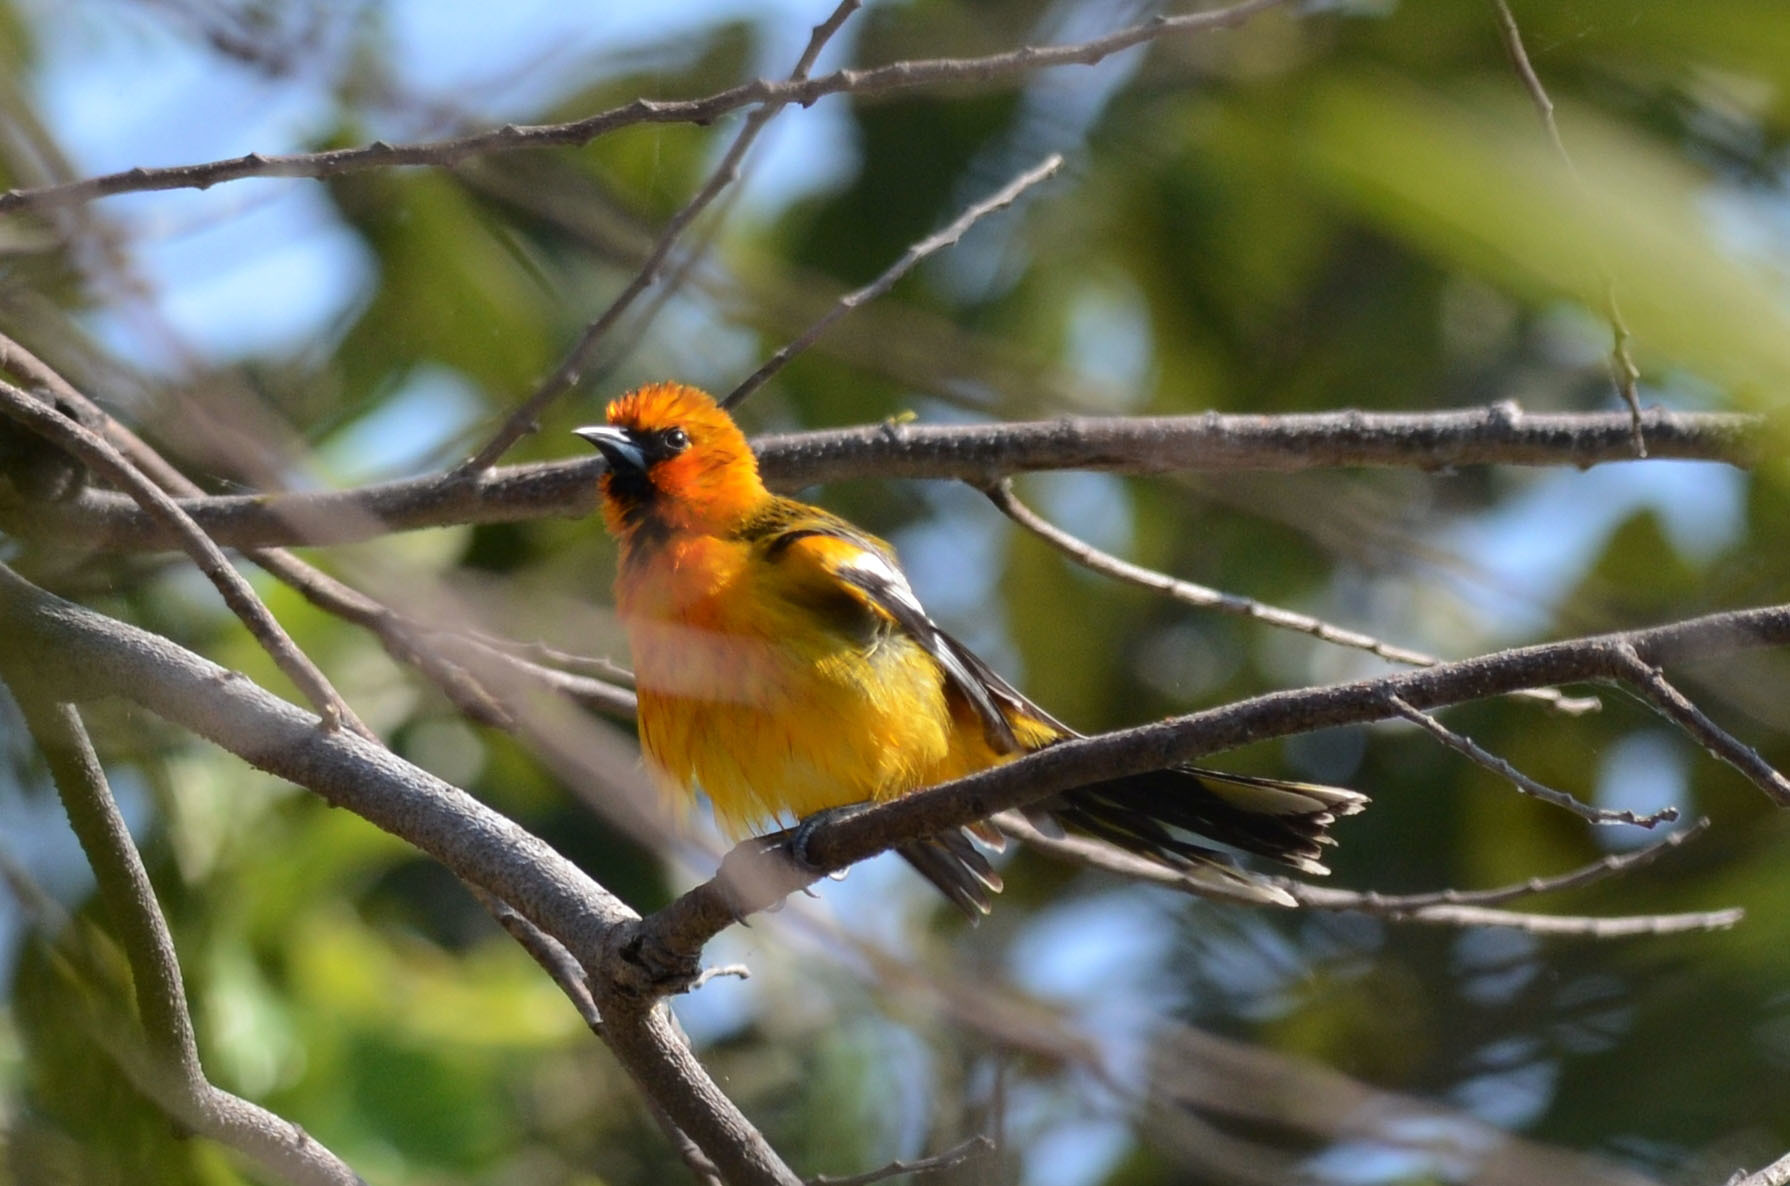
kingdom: Animalia
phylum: Chordata
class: Aves
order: Passeriformes
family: Icteridae
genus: Icterus
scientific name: Icterus pustulatus
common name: Streak-backed oriole
